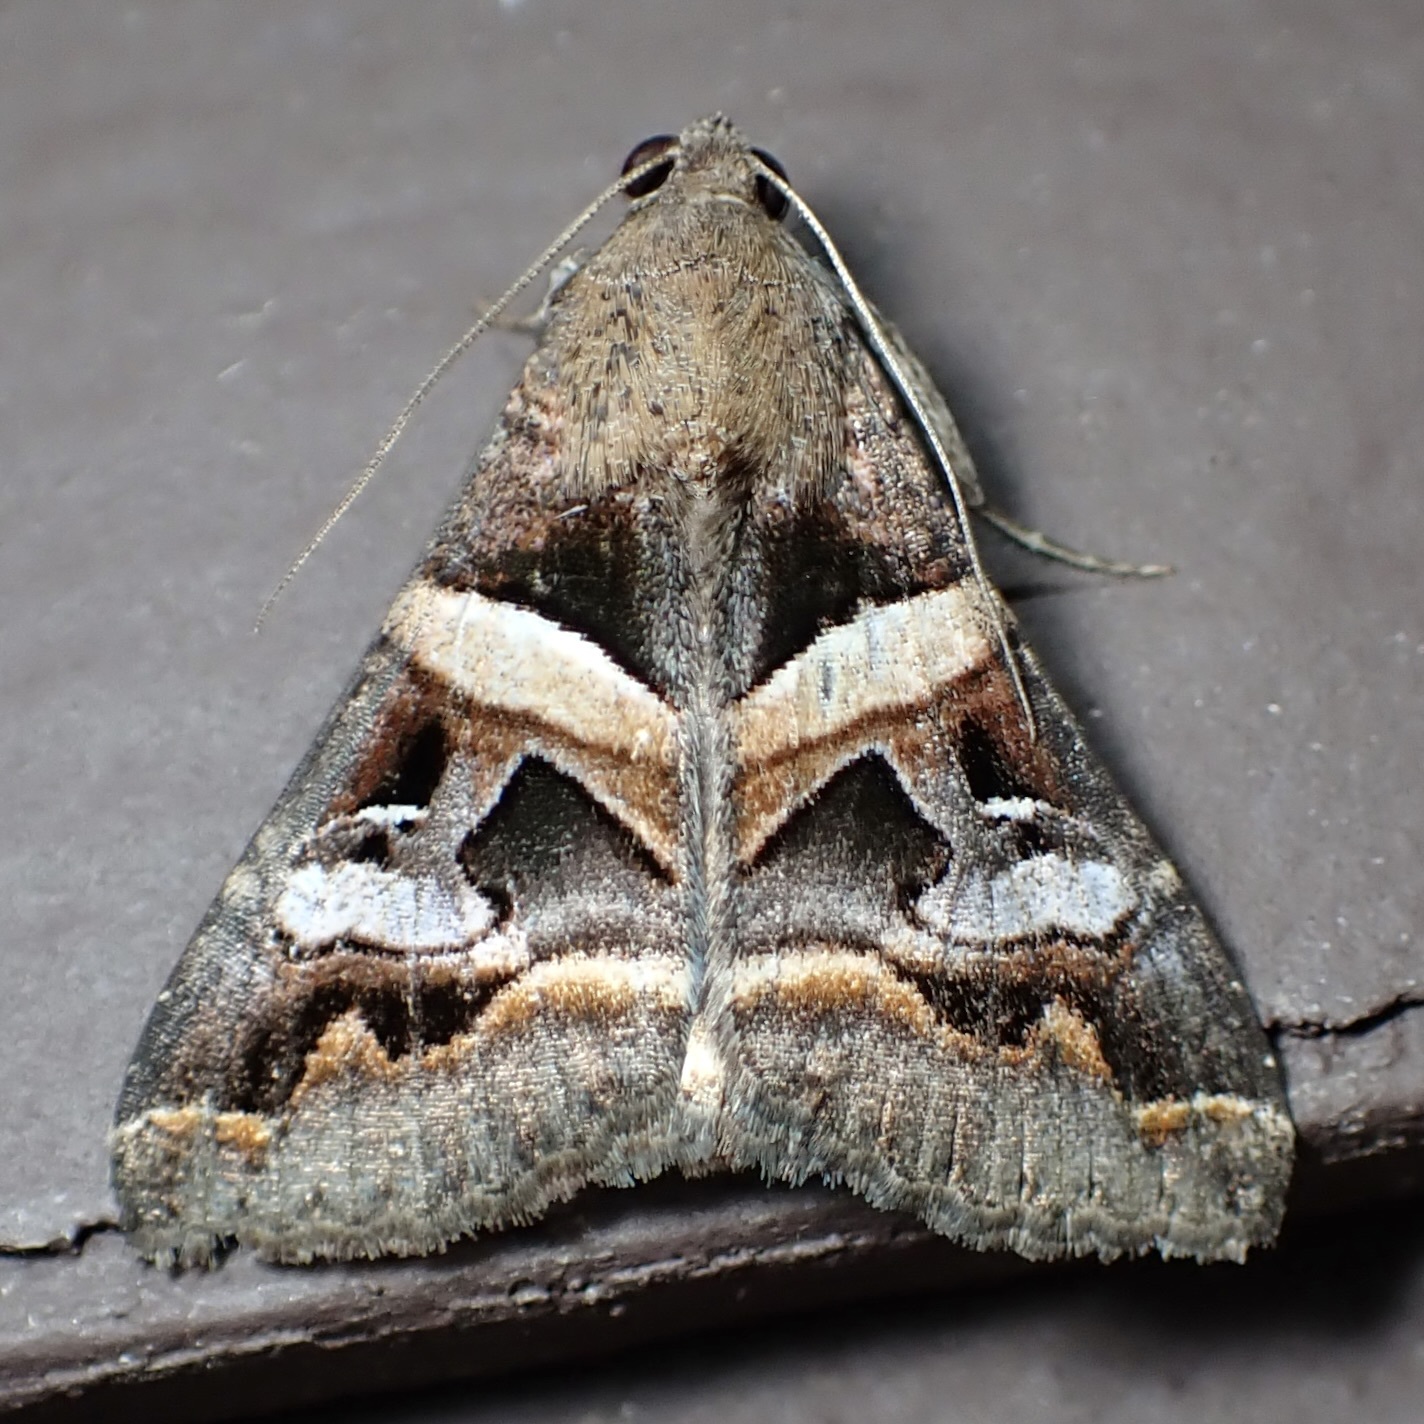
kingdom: Animalia
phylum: Arthropoda
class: Insecta
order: Lepidoptera
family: Erebidae
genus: Melipotis
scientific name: Melipotis perpendicularis
